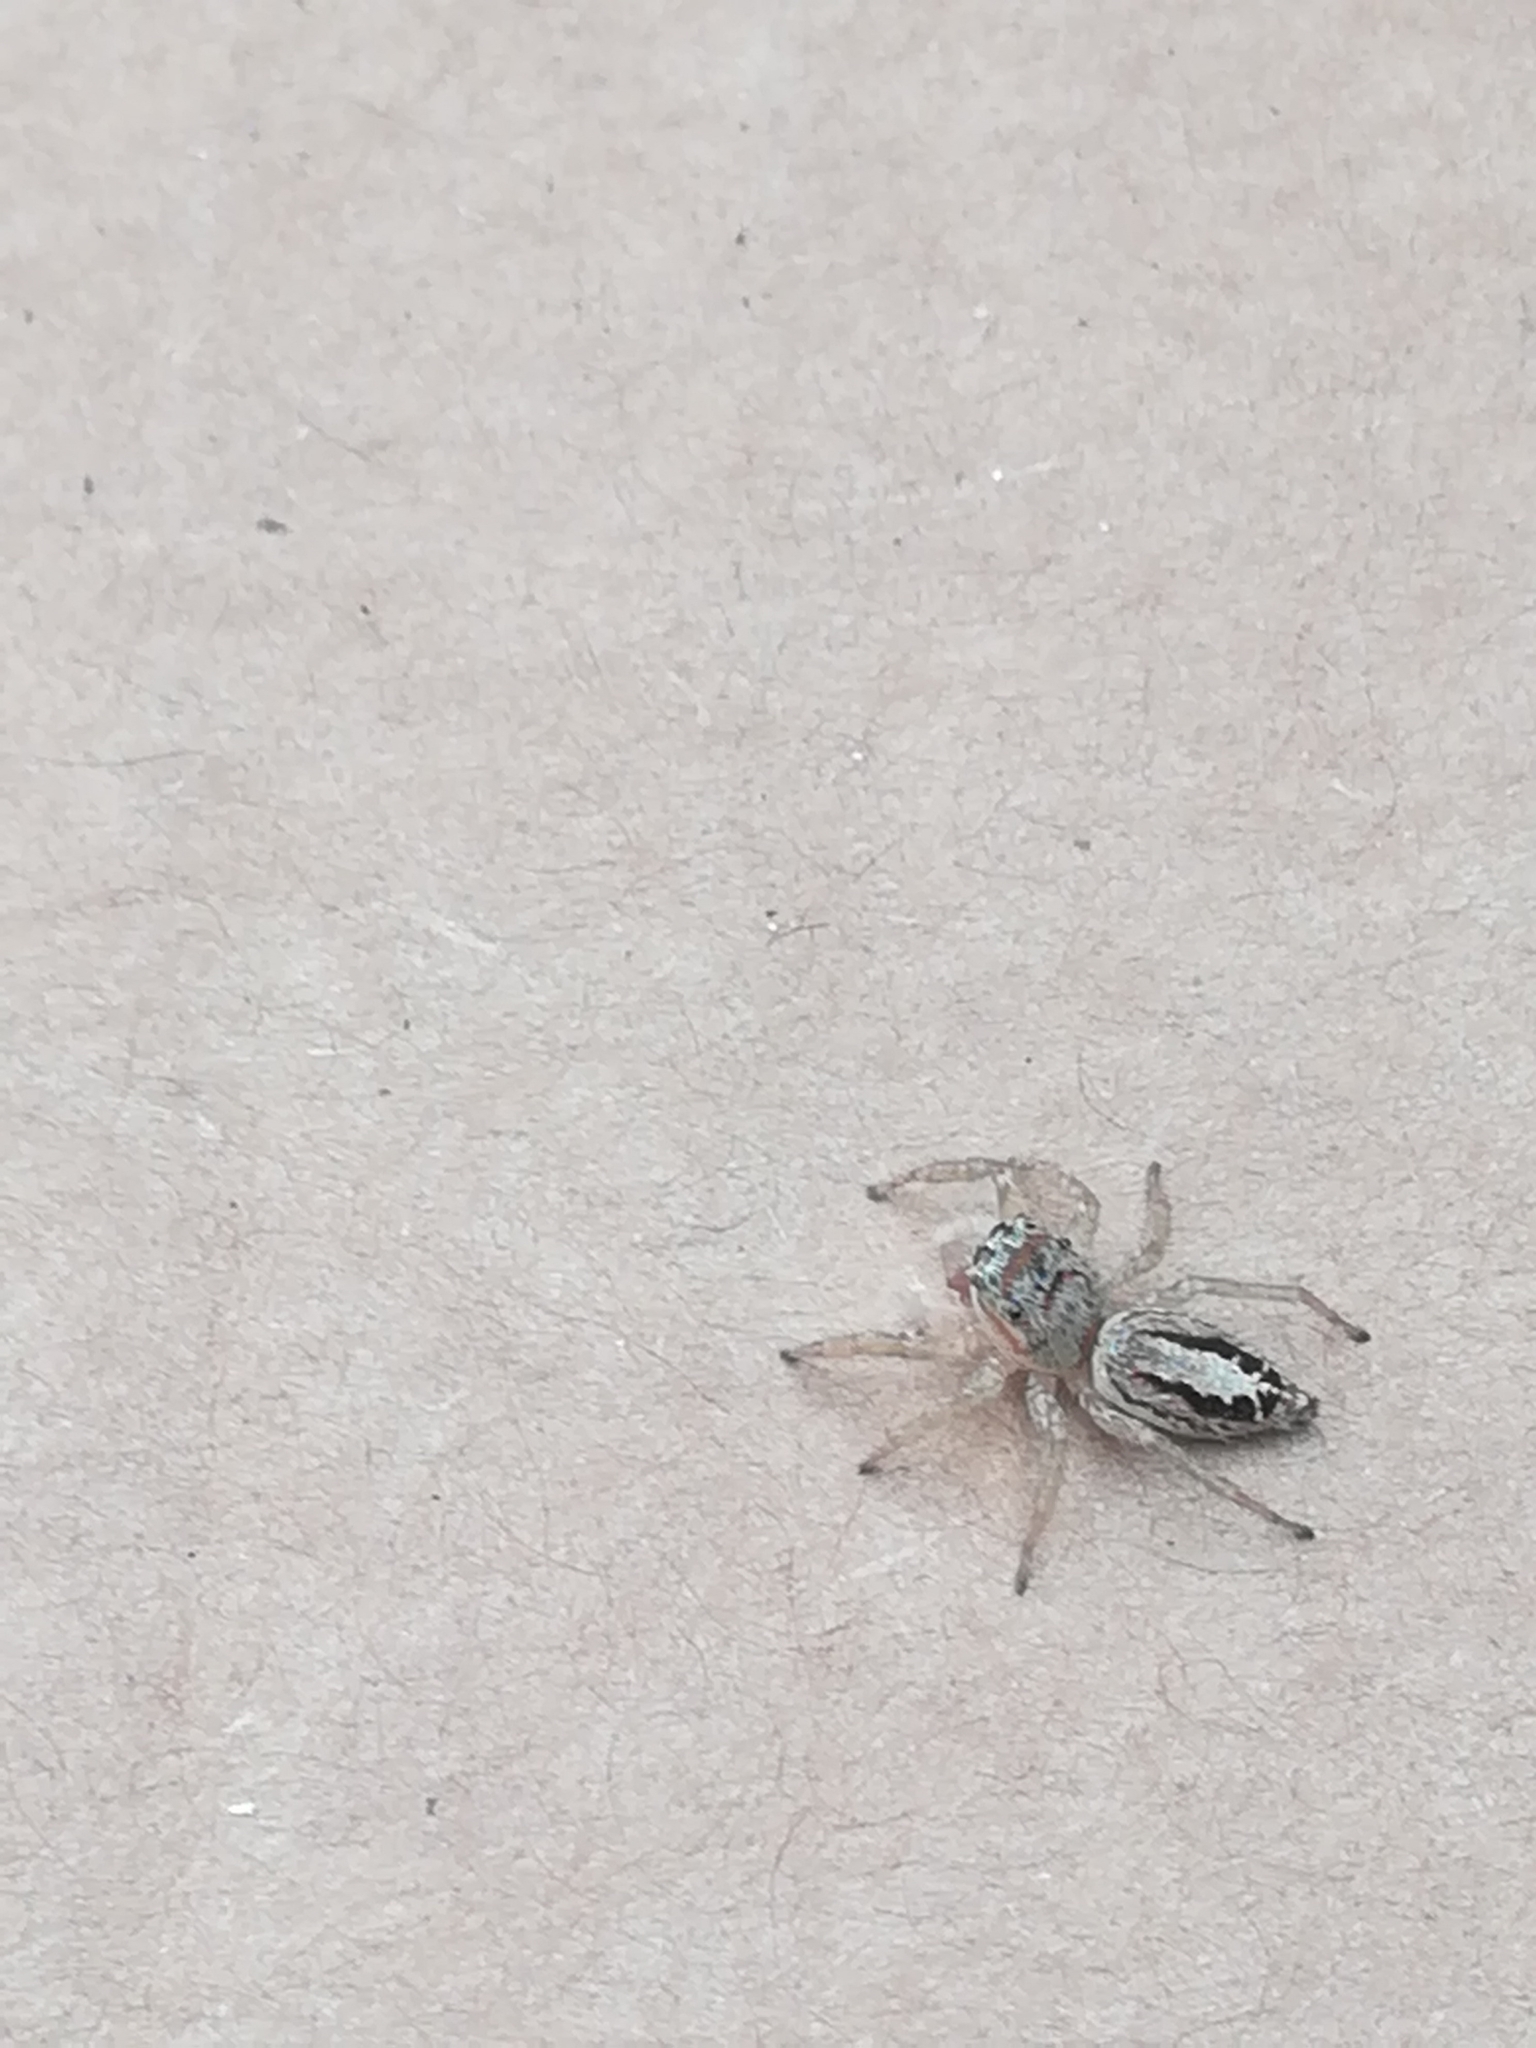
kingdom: Animalia
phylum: Arthropoda
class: Arachnida
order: Araneae
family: Salticidae
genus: Icius
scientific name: Icius subinermis
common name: Jumping spider
